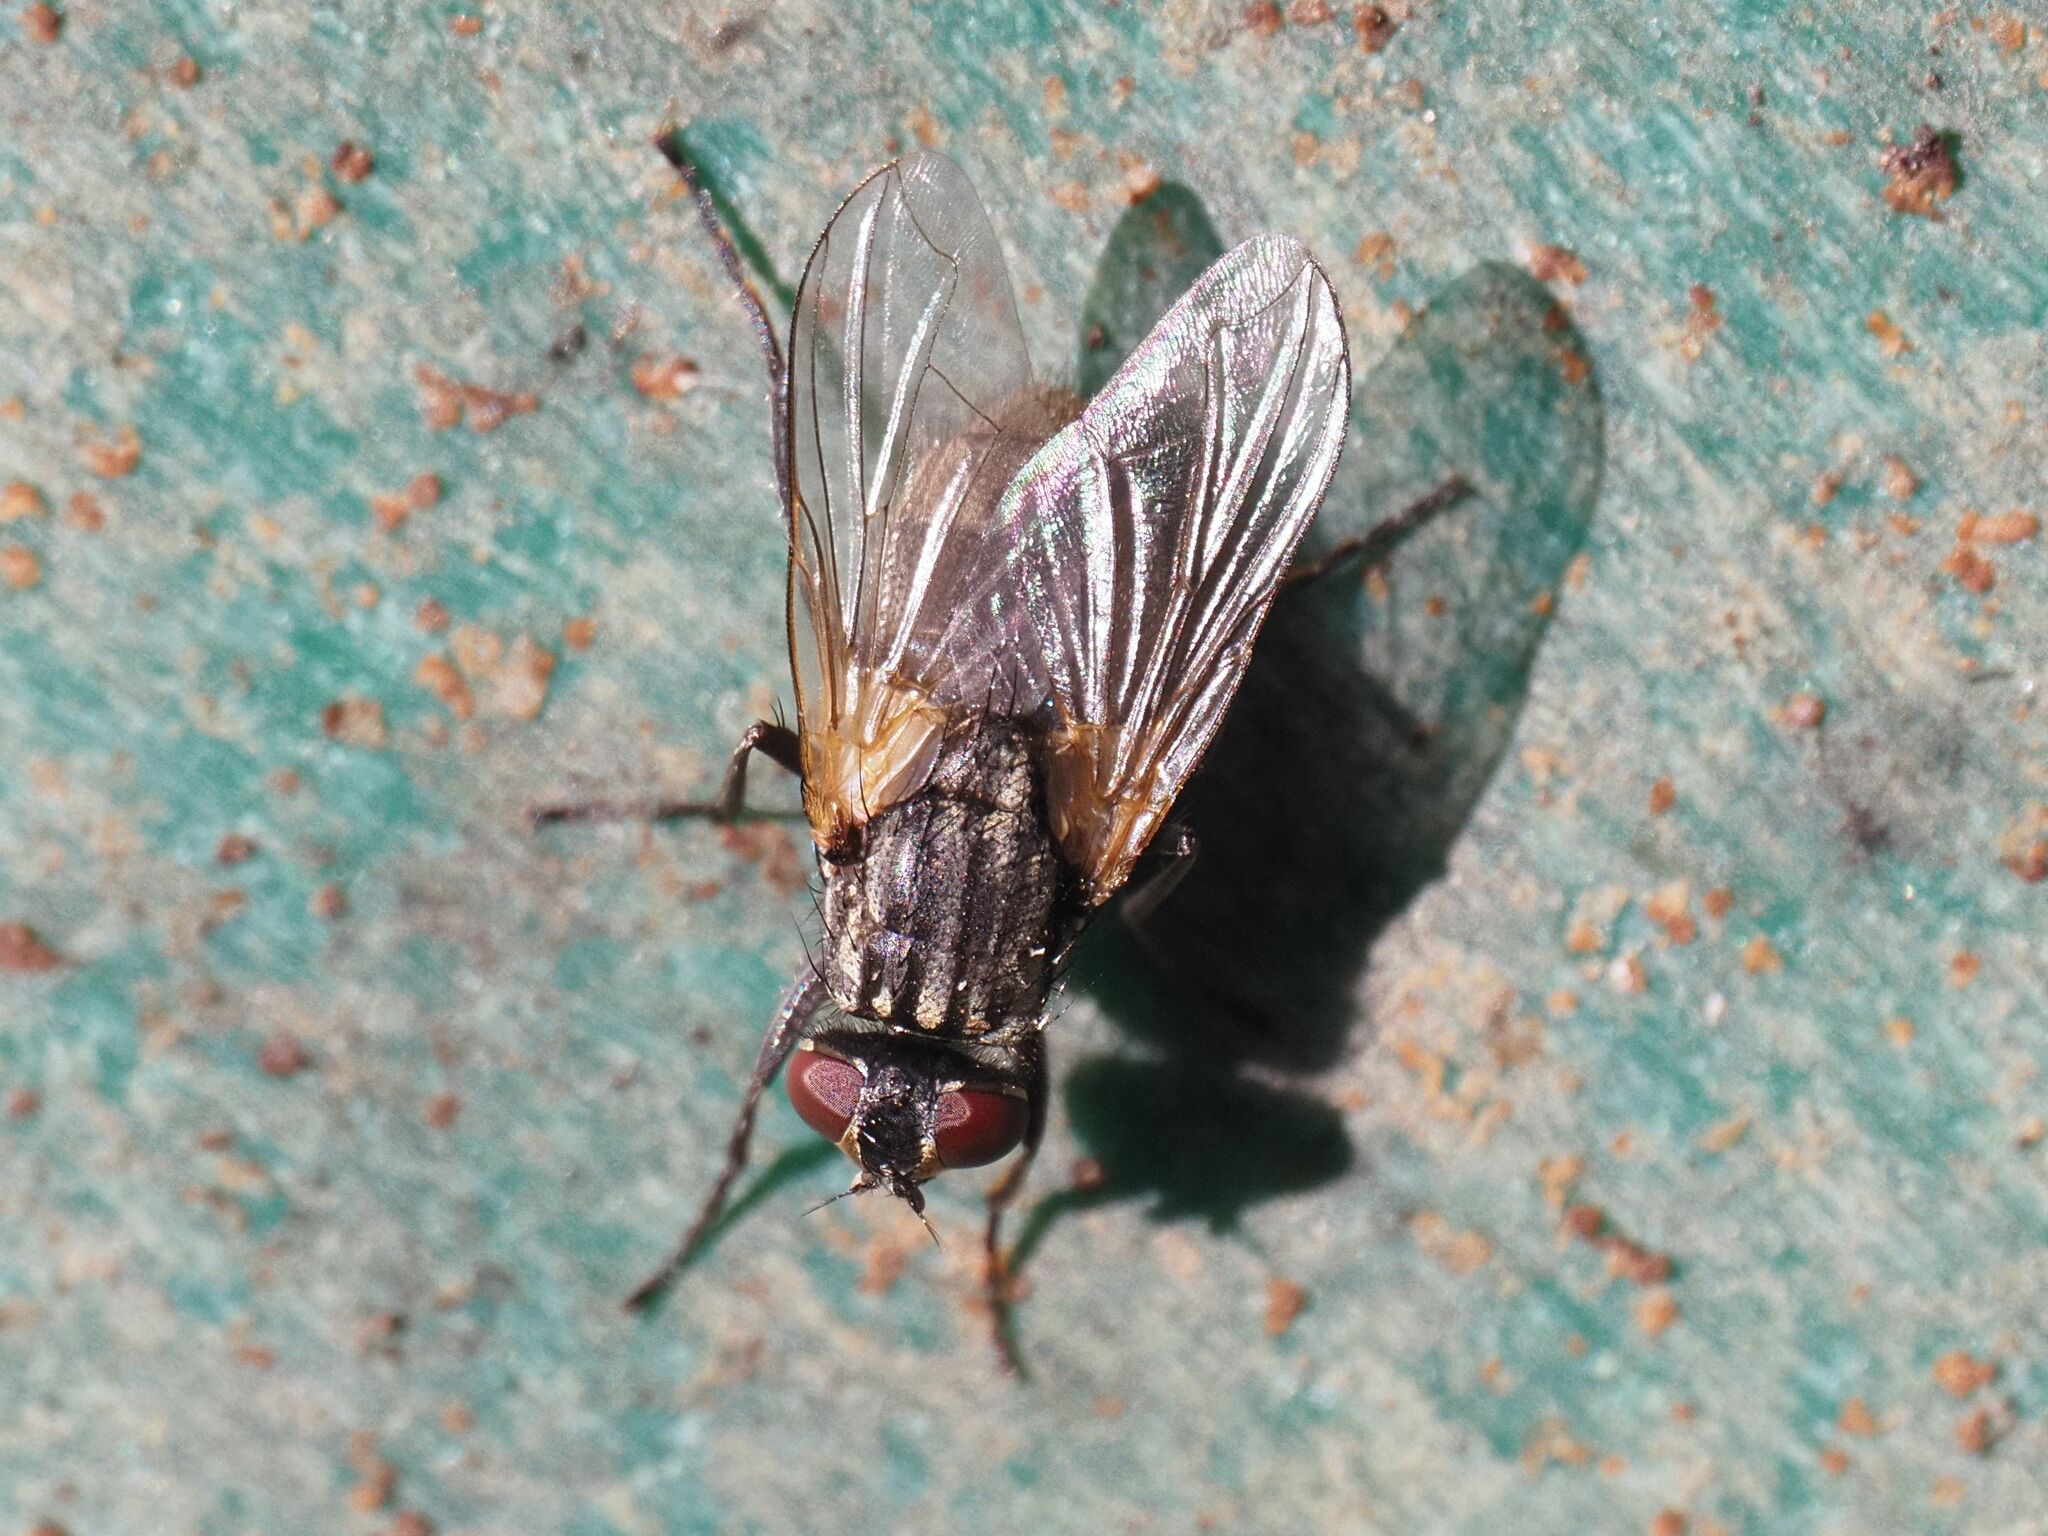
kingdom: Animalia
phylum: Arthropoda
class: Insecta
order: Diptera
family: Muscidae
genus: Musca
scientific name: Musca domestica
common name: House fly
